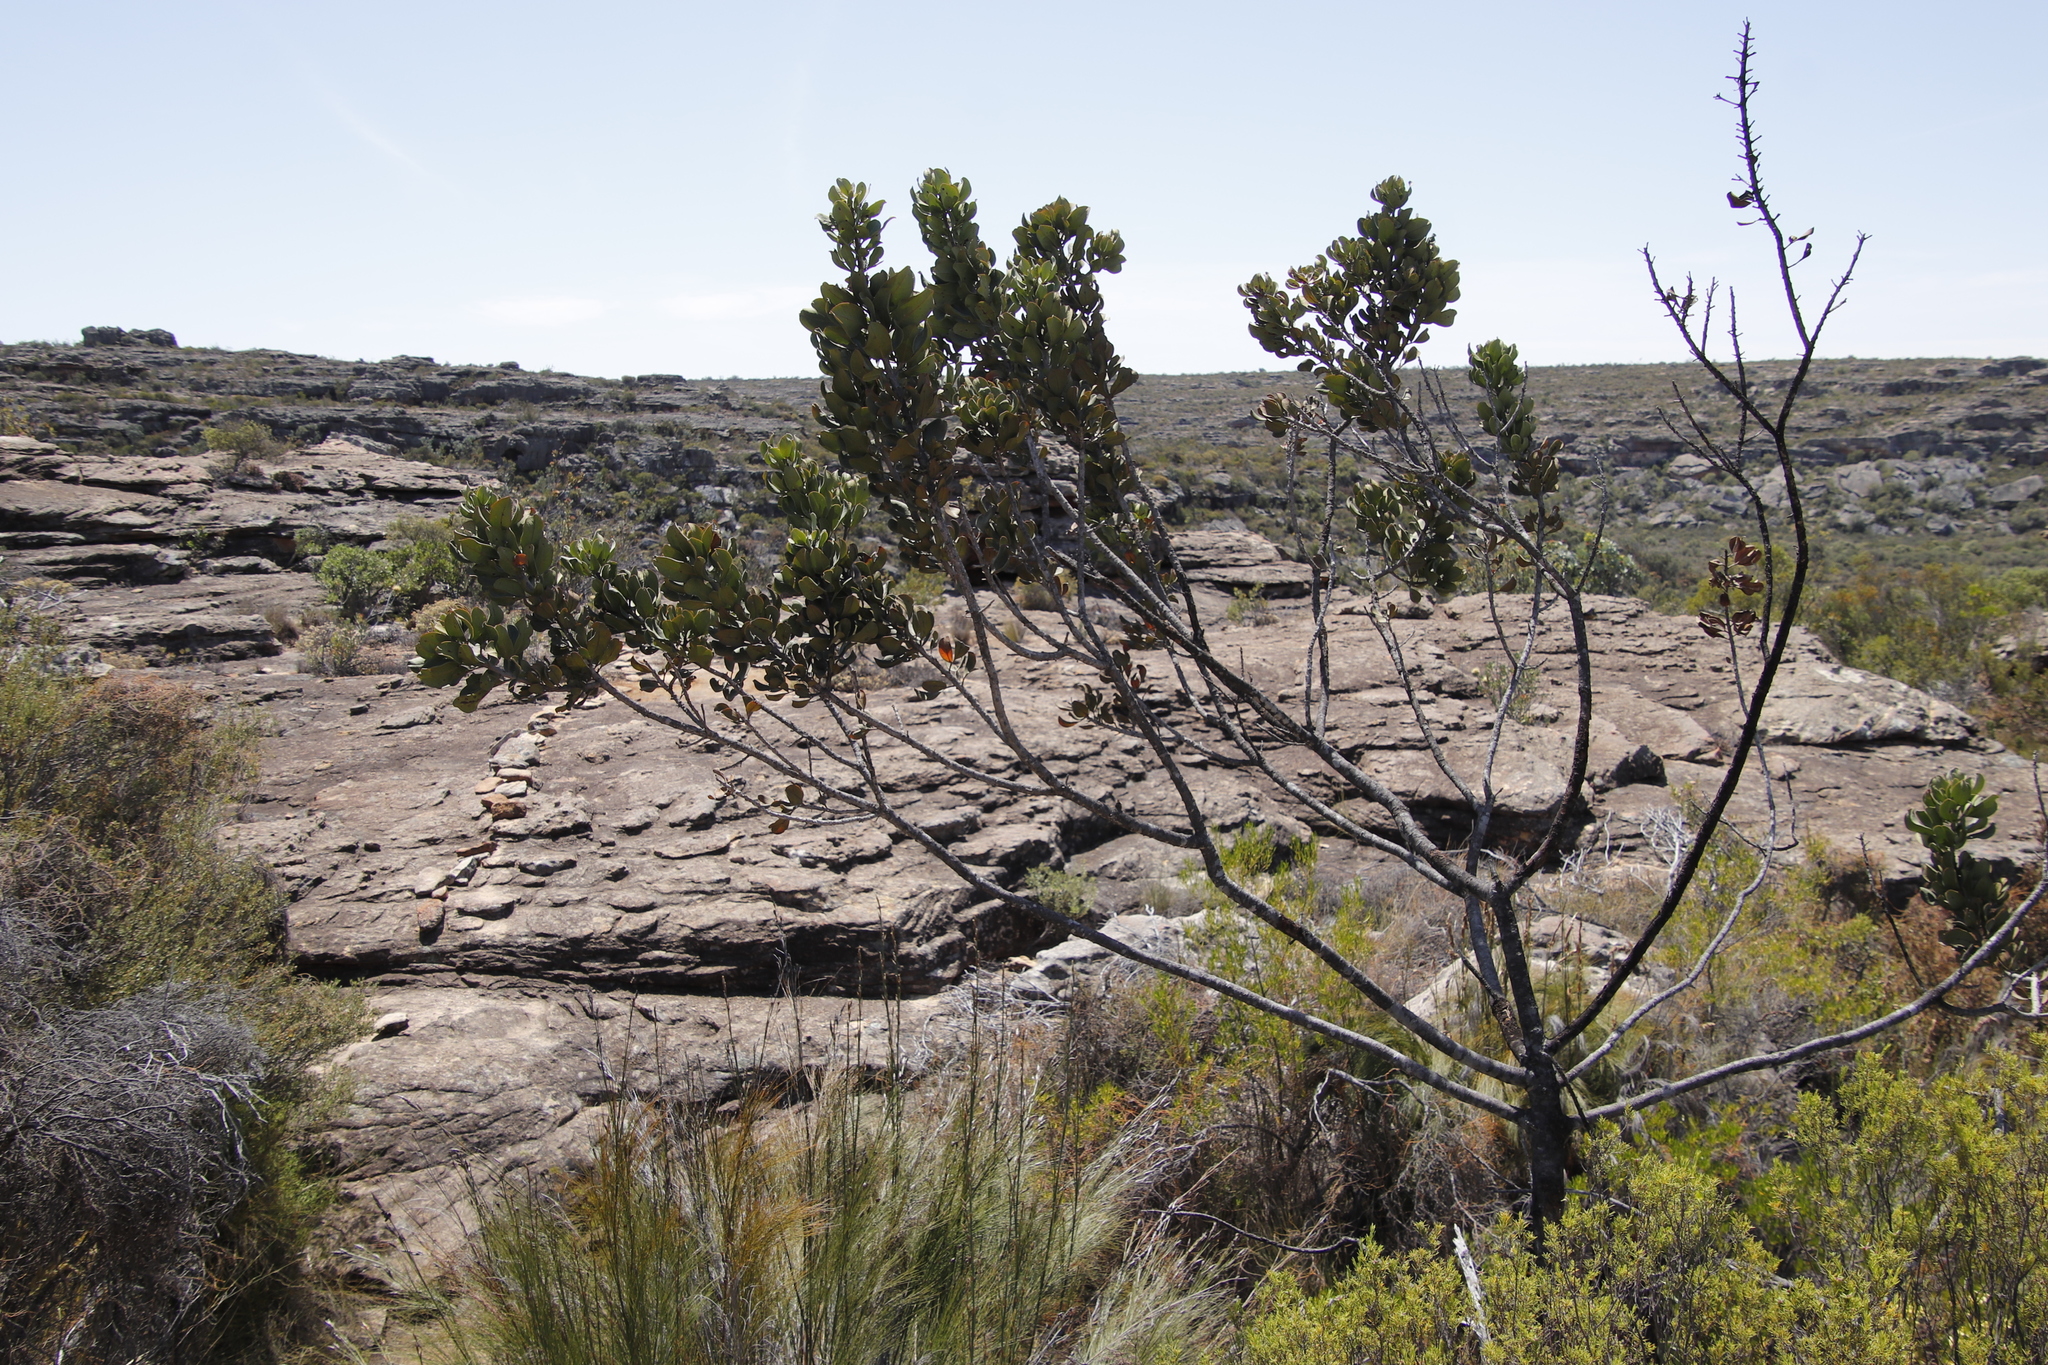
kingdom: Plantae
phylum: Tracheophyta
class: Magnoliopsida
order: Sapindales
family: Anacardiaceae
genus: Searsia
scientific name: Searsia scytophylla
